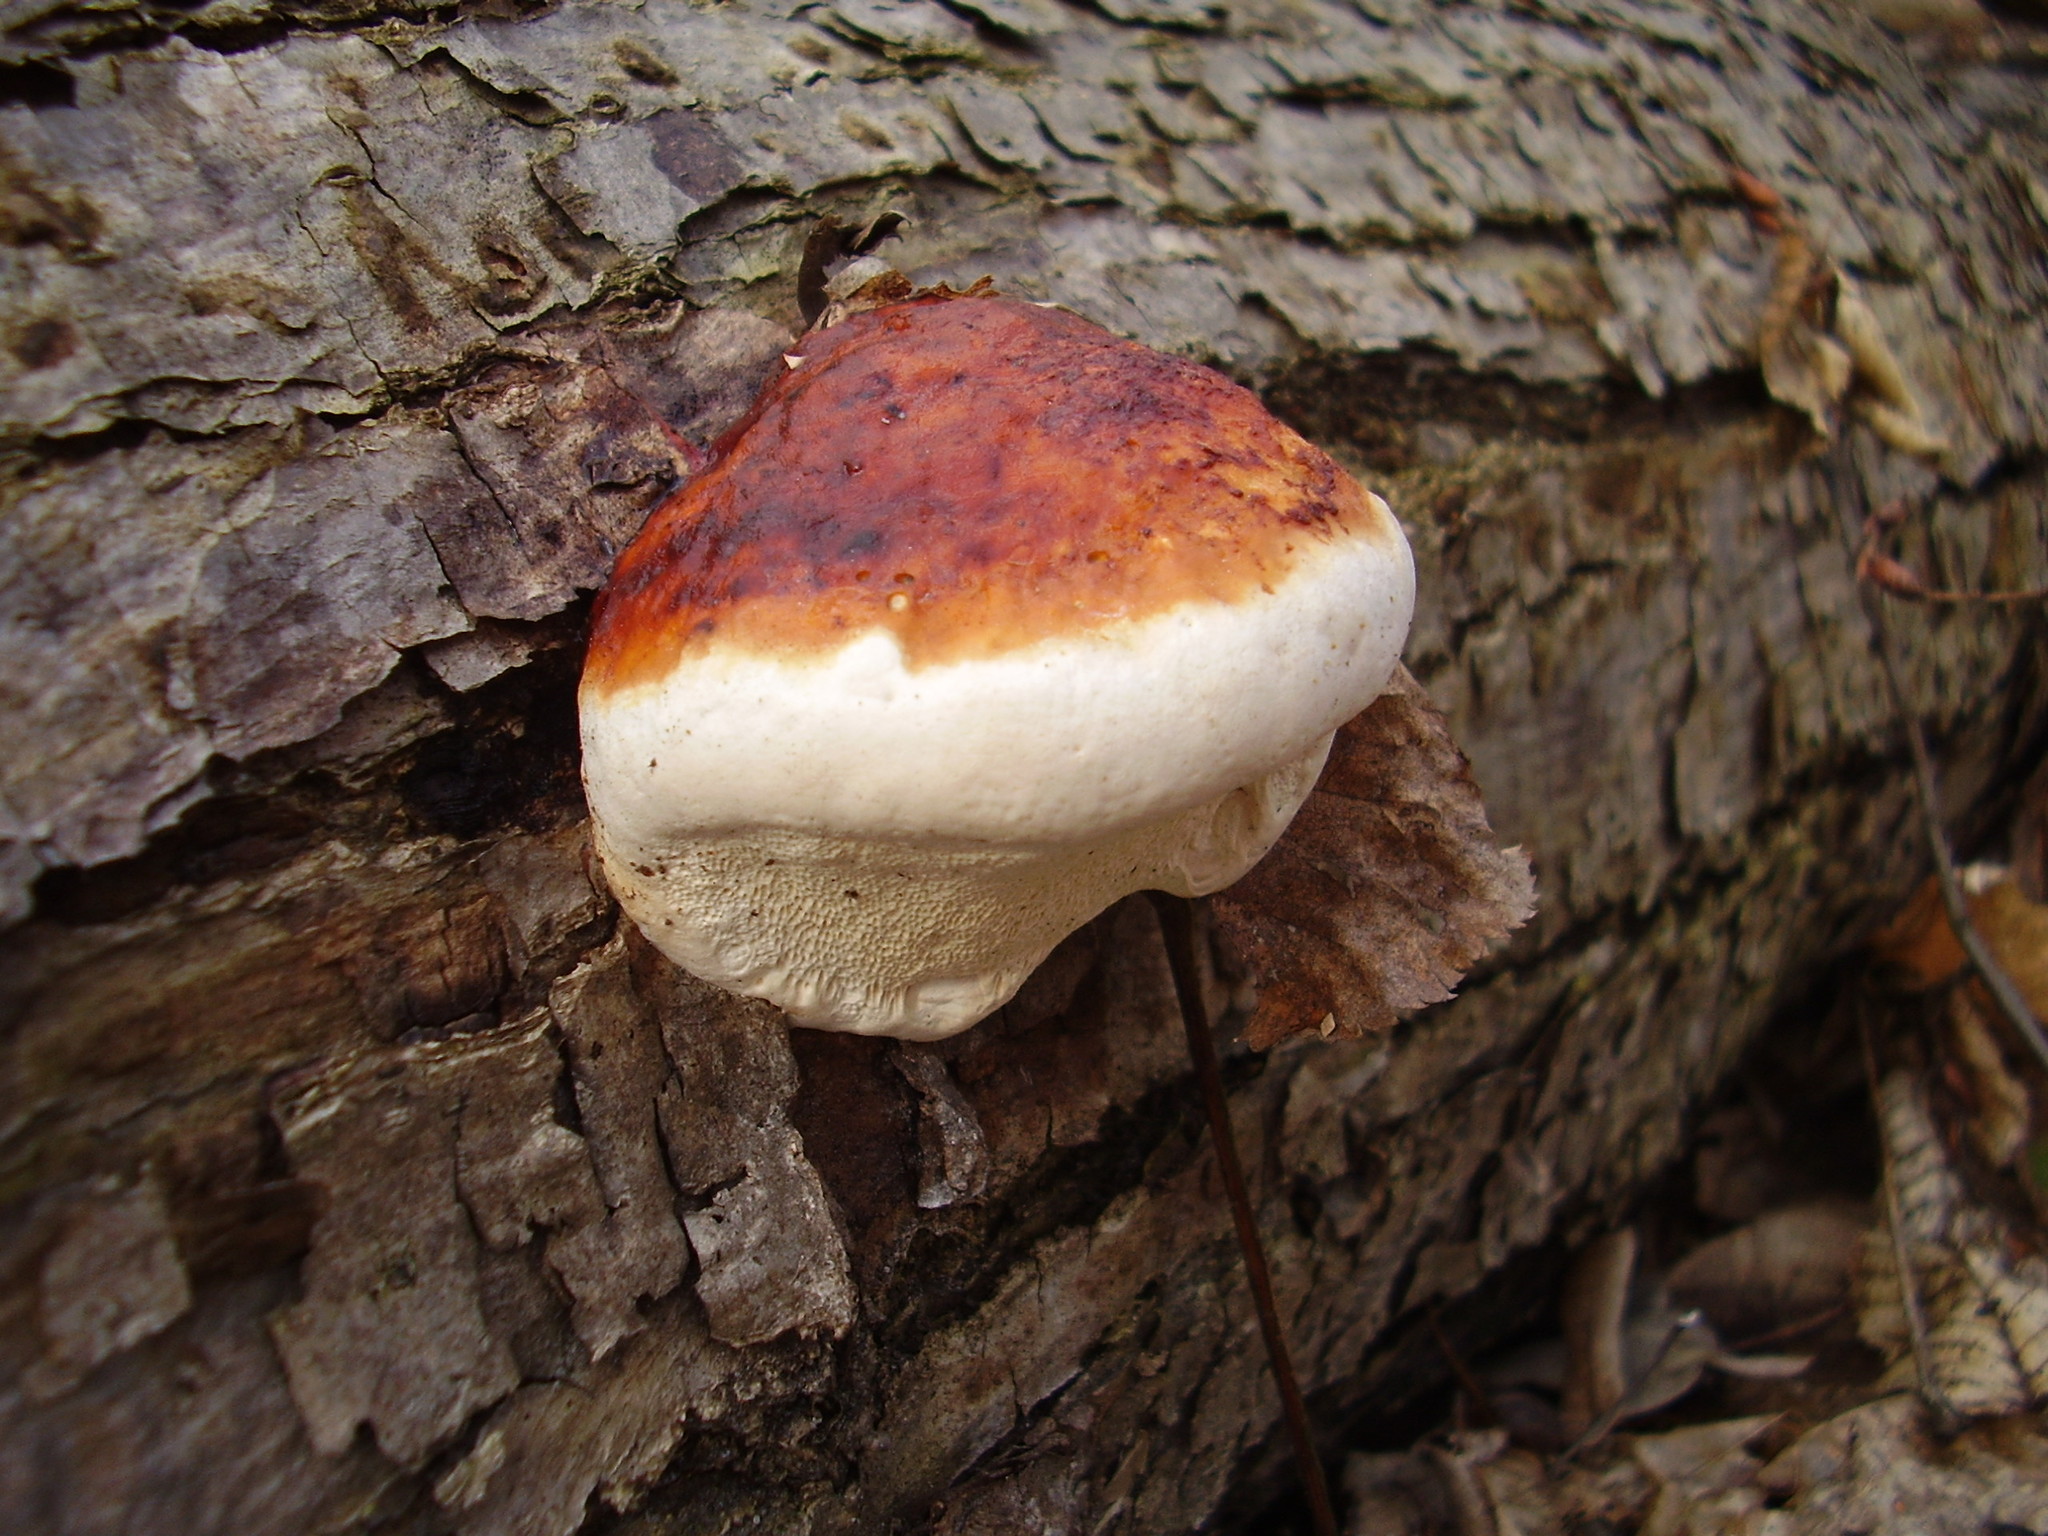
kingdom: Fungi
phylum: Basidiomycota
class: Agaricomycetes
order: Polyporales
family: Fomitopsidaceae
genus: Fomitopsis
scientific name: Fomitopsis pinicola
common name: Red-belted bracket
